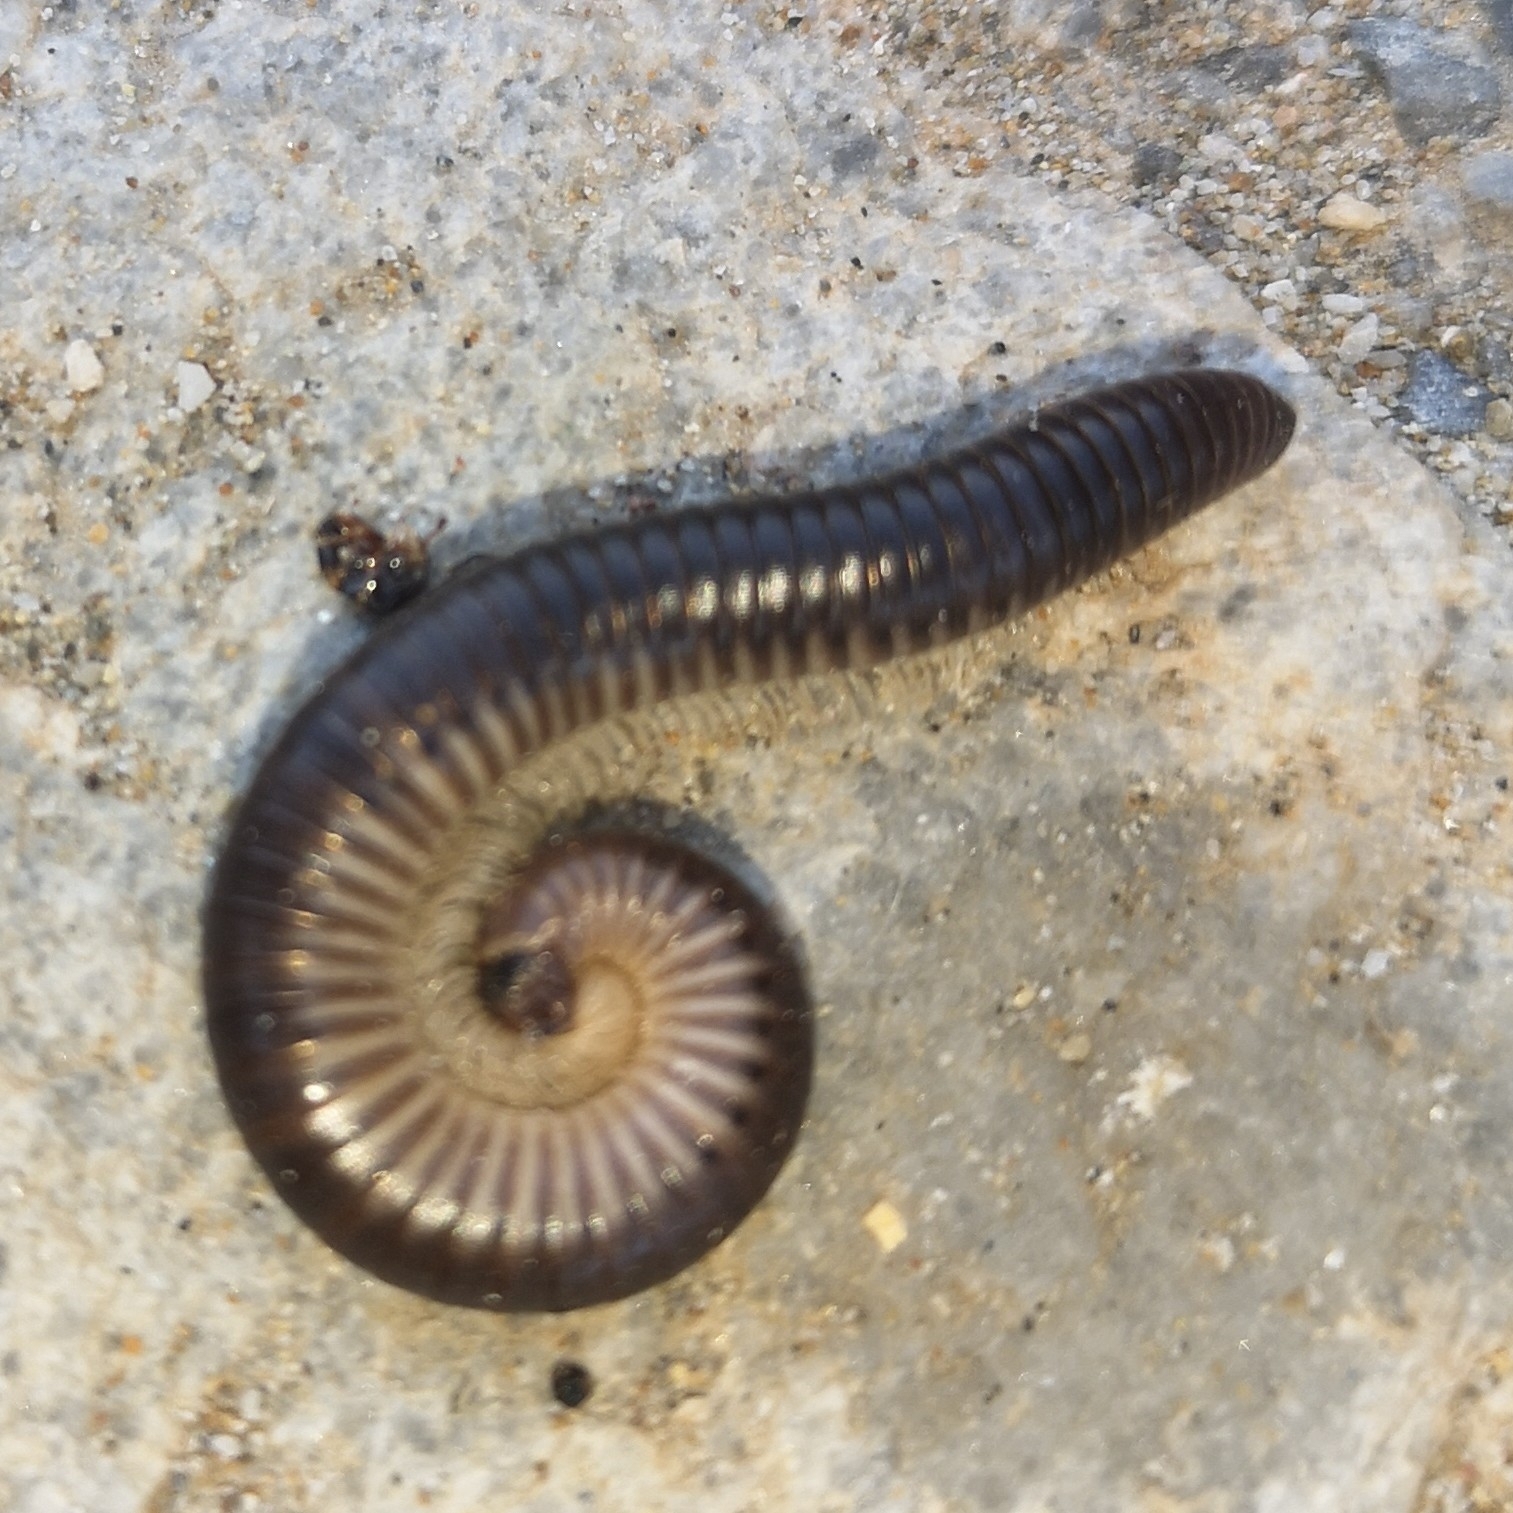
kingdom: Animalia
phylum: Arthropoda
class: Diplopoda
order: Julida
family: Julidae
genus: Pachyiulus
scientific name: Pachyiulus flavipes
